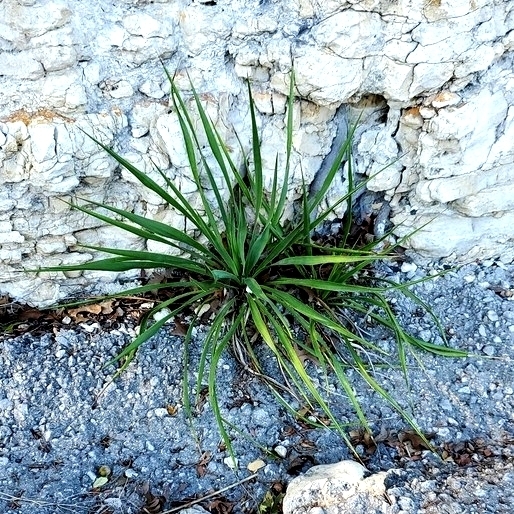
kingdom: Plantae
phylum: Tracheophyta
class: Liliopsida
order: Asparagales
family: Asparagaceae
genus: Yucca
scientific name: Yucca rupicola
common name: Twisted-leaf spanish-dagger
